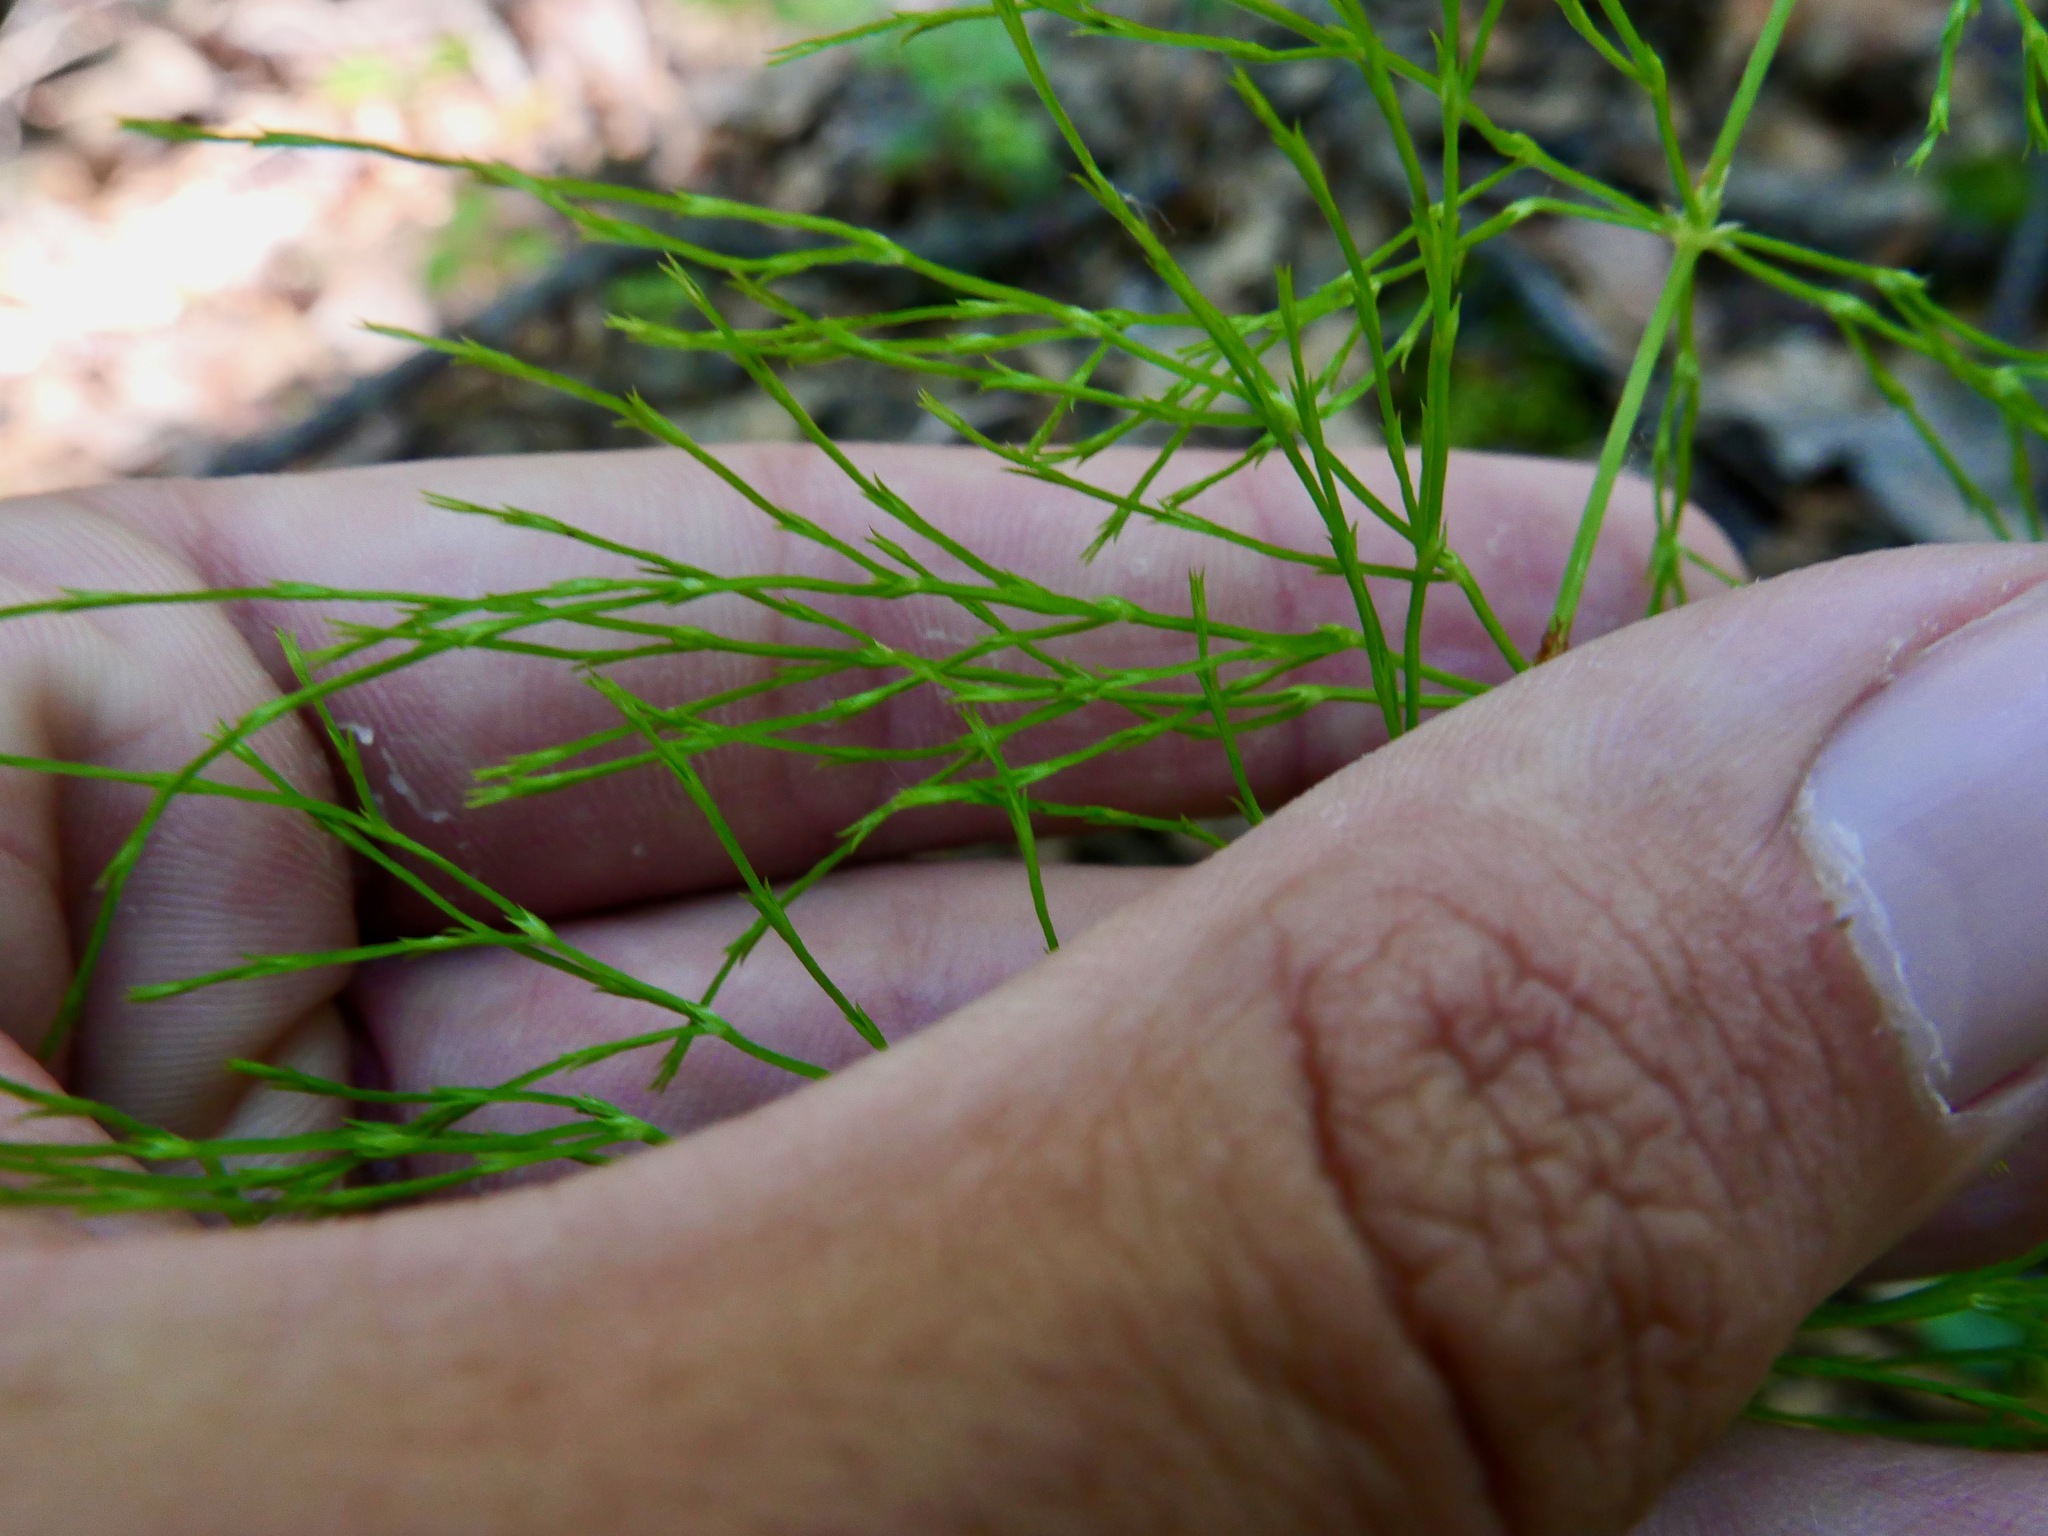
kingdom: Plantae
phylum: Tracheophyta
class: Polypodiopsida
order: Equisetales
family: Equisetaceae
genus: Equisetum
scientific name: Equisetum sylvaticum
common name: Wood horsetail
